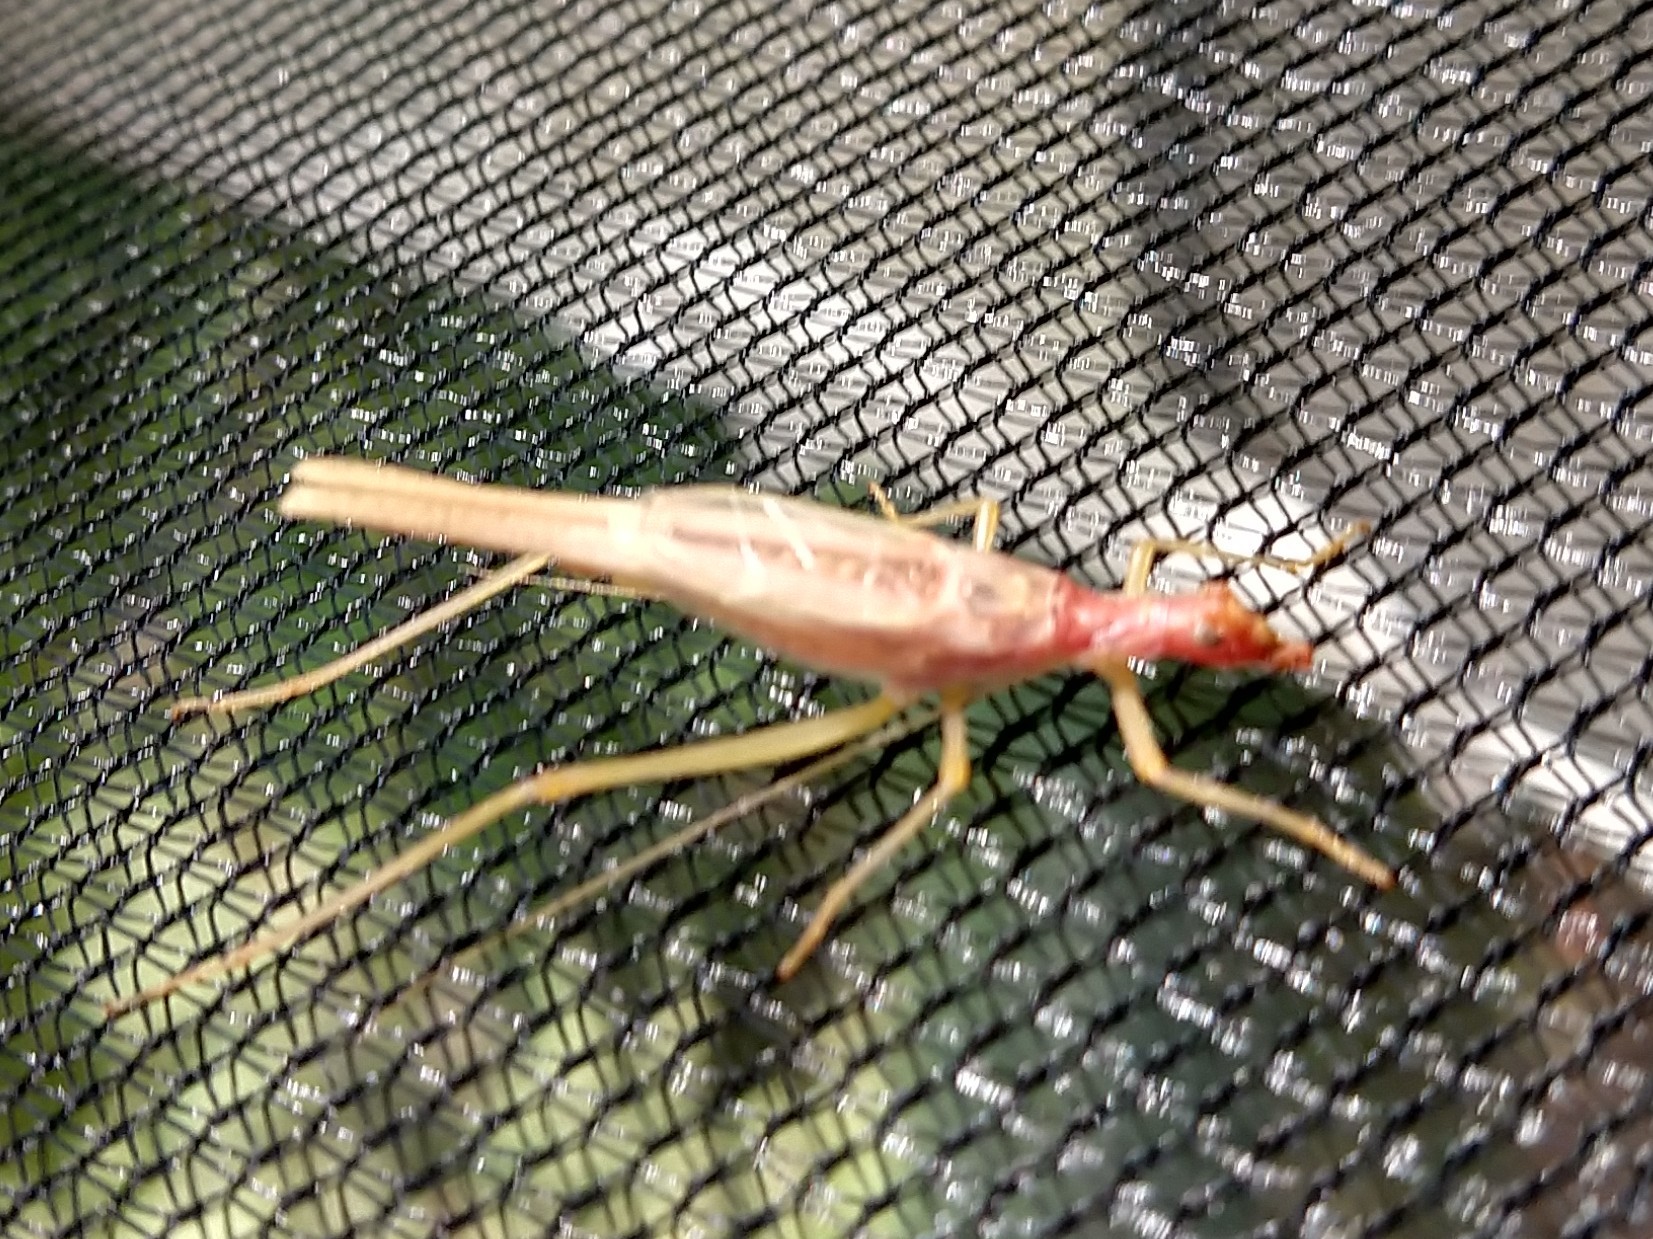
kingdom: Animalia
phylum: Arthropoda
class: Insecta
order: Orthoptera
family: Gryllidae
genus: Neoxabea
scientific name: Neoxabea bipunctata
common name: Two-spotted tree cricket
